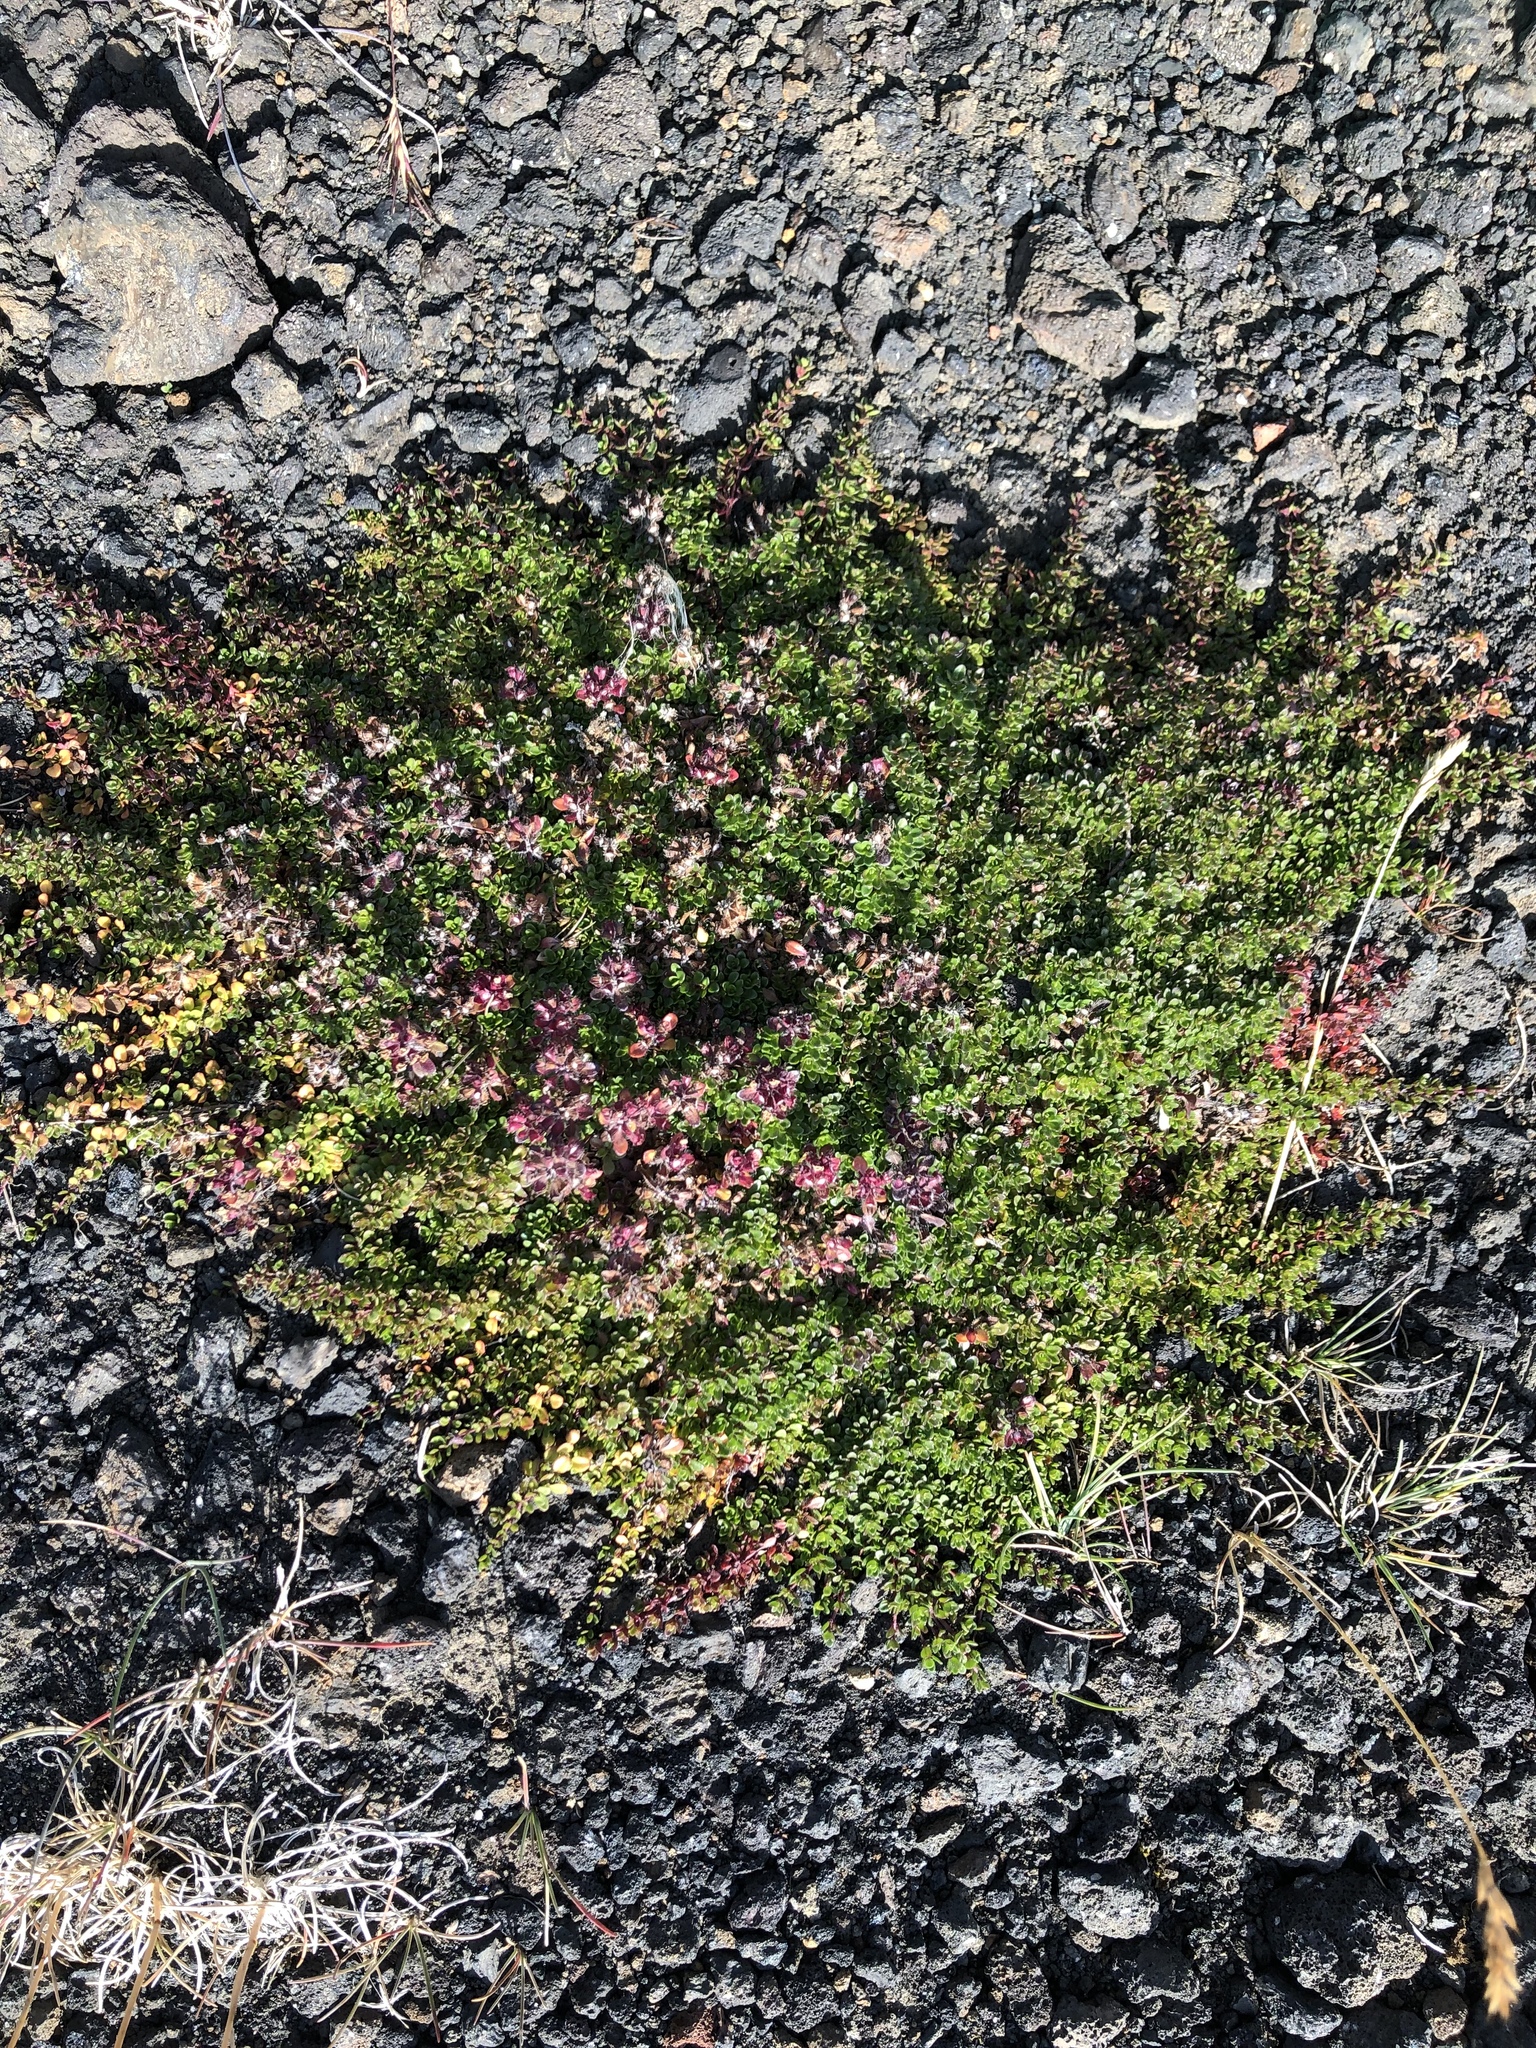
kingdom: Plantae
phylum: Tracheophyta
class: Magnoliopsida
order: Lamiales
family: Lamiaceae
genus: Thymus
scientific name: Thymus praecox
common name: Wild thyme
